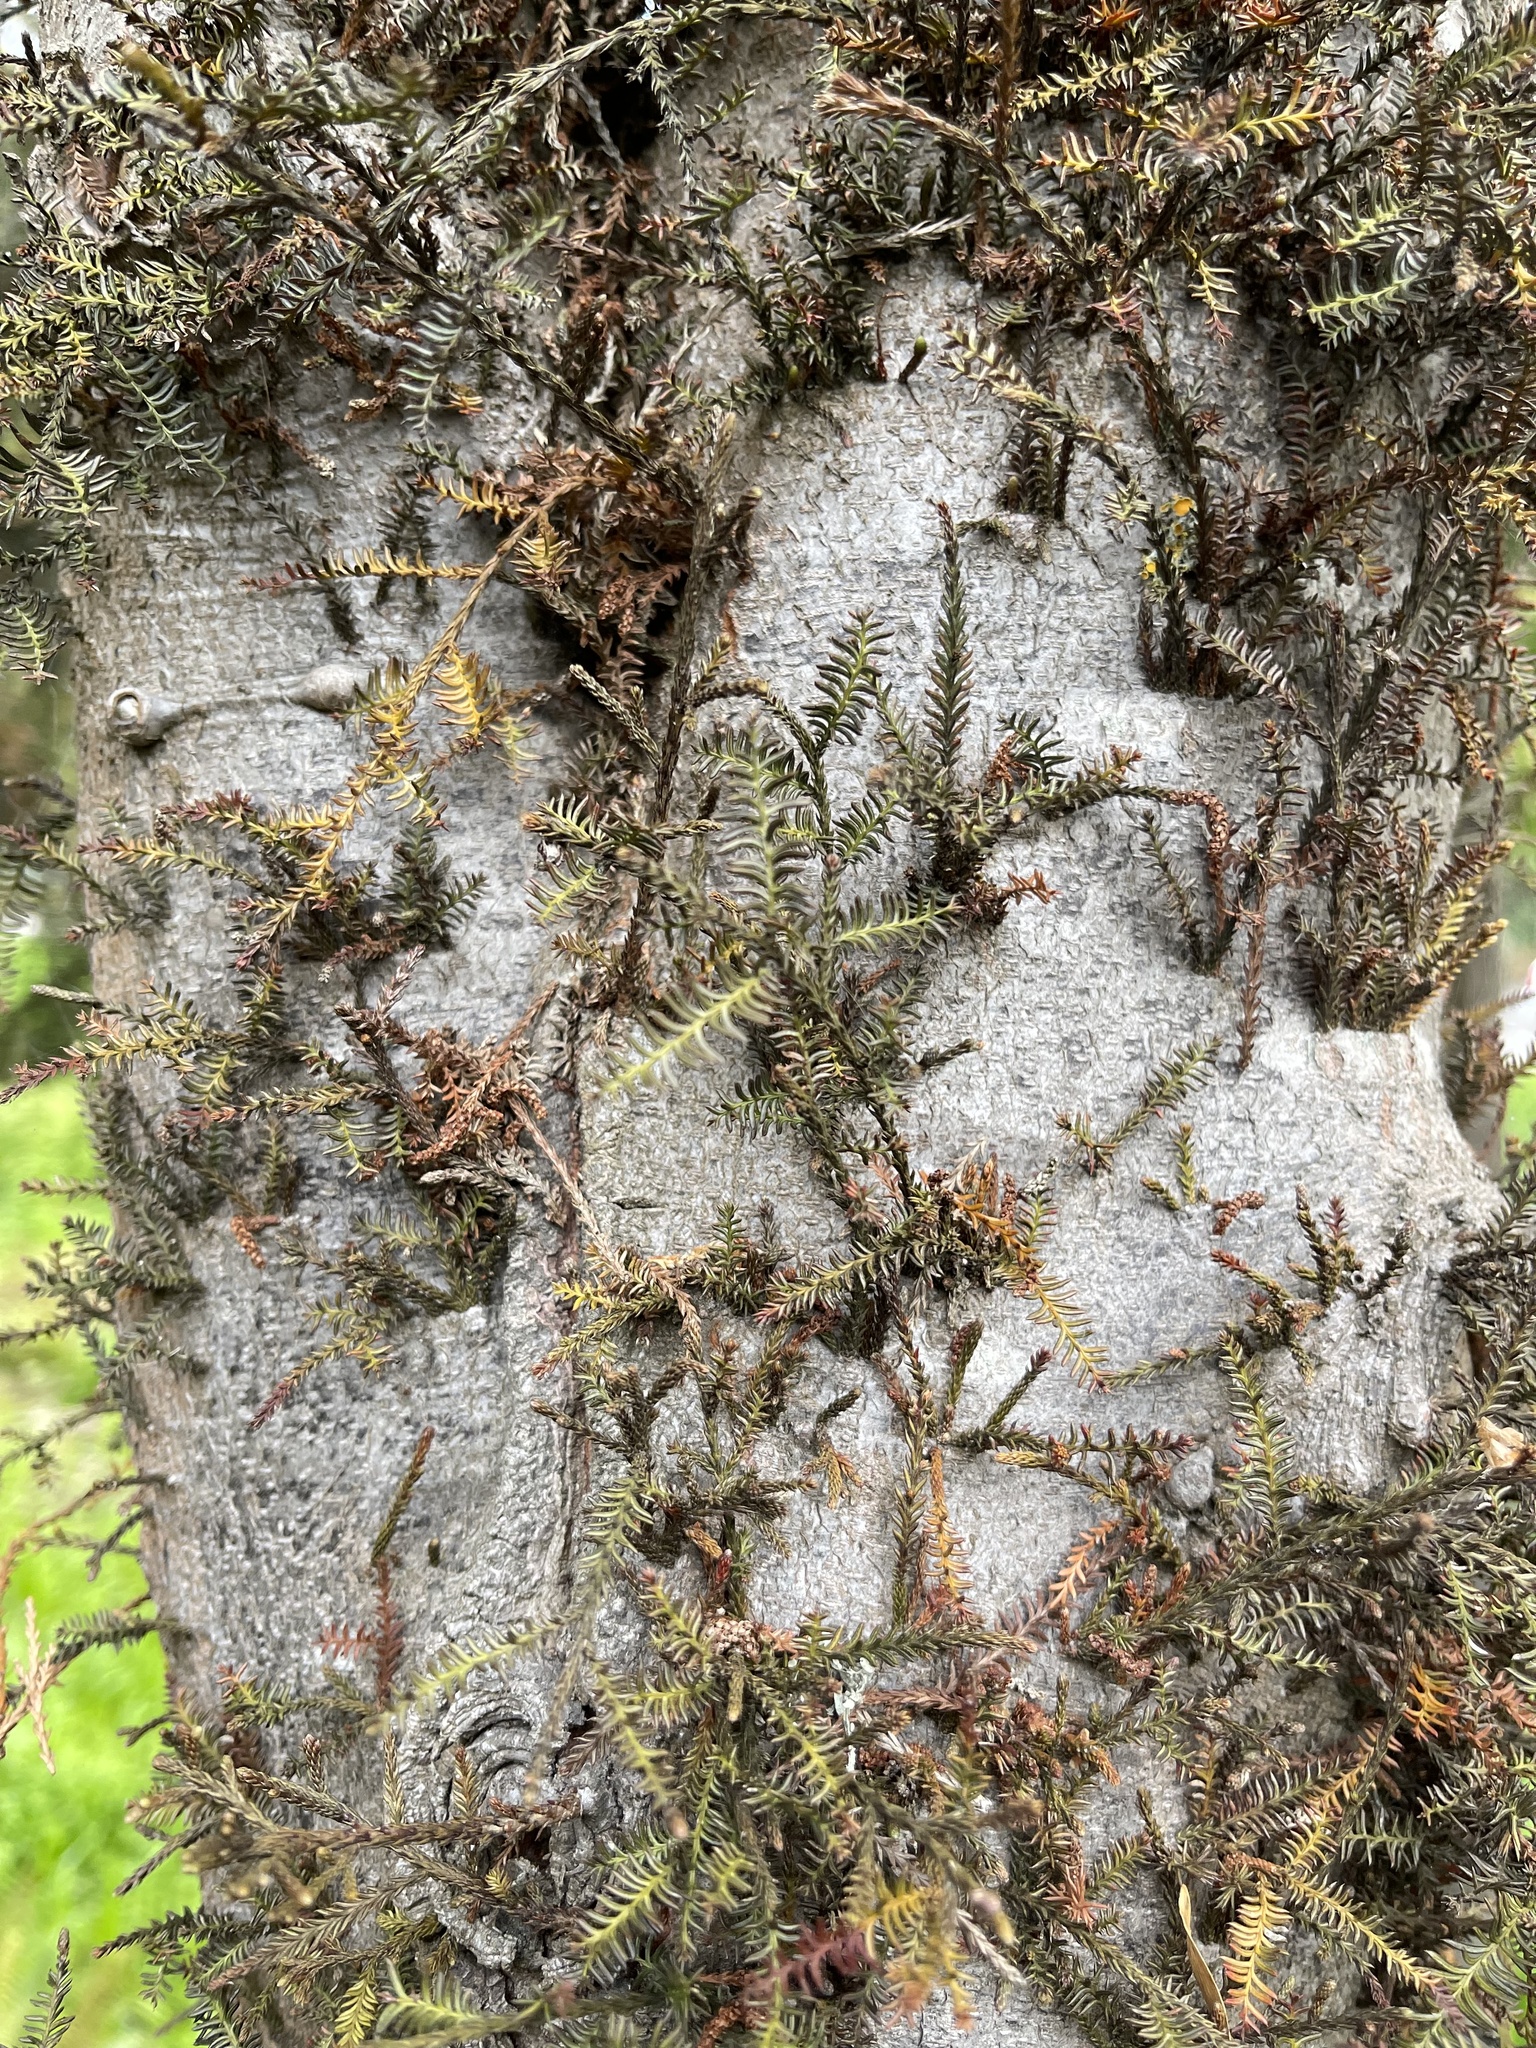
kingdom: Plantae
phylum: Tracheophyta
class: Pinopsida
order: Pinales
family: Podocarpaceae
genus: Dacrycarpus
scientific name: Dacrycarpus dacrydioides
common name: White pine
